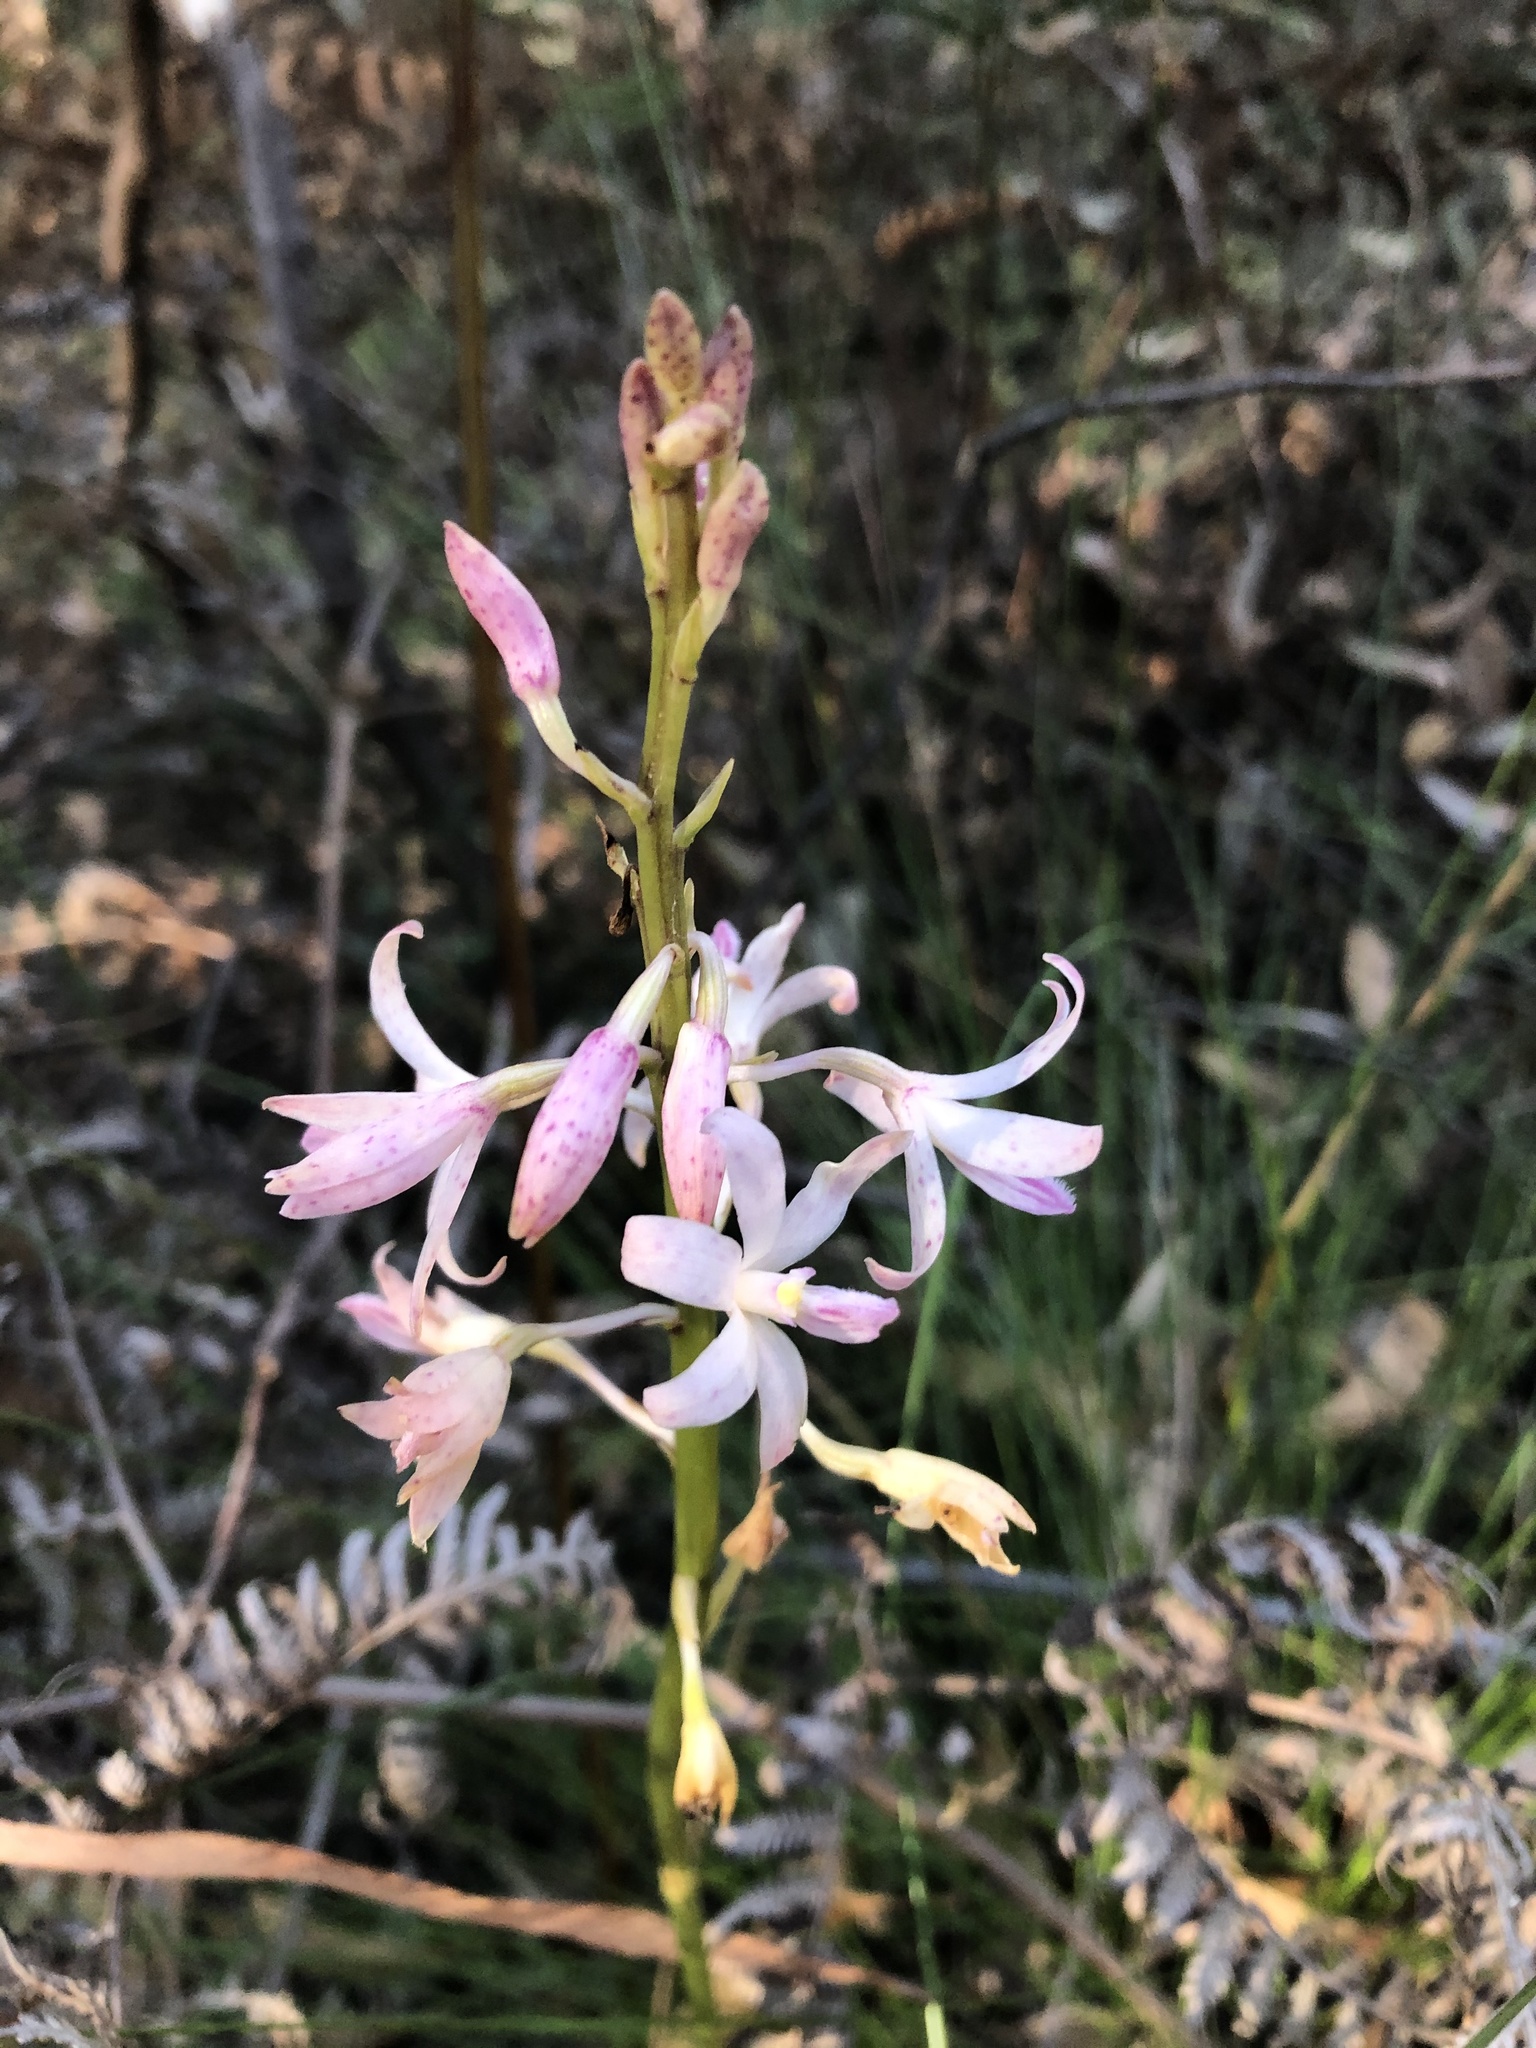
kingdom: Plantae
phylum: Tracheophyta
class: Liliopsida
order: Asparagales
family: Orchidaceae
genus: Dipodium
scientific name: Dipodium roseum
